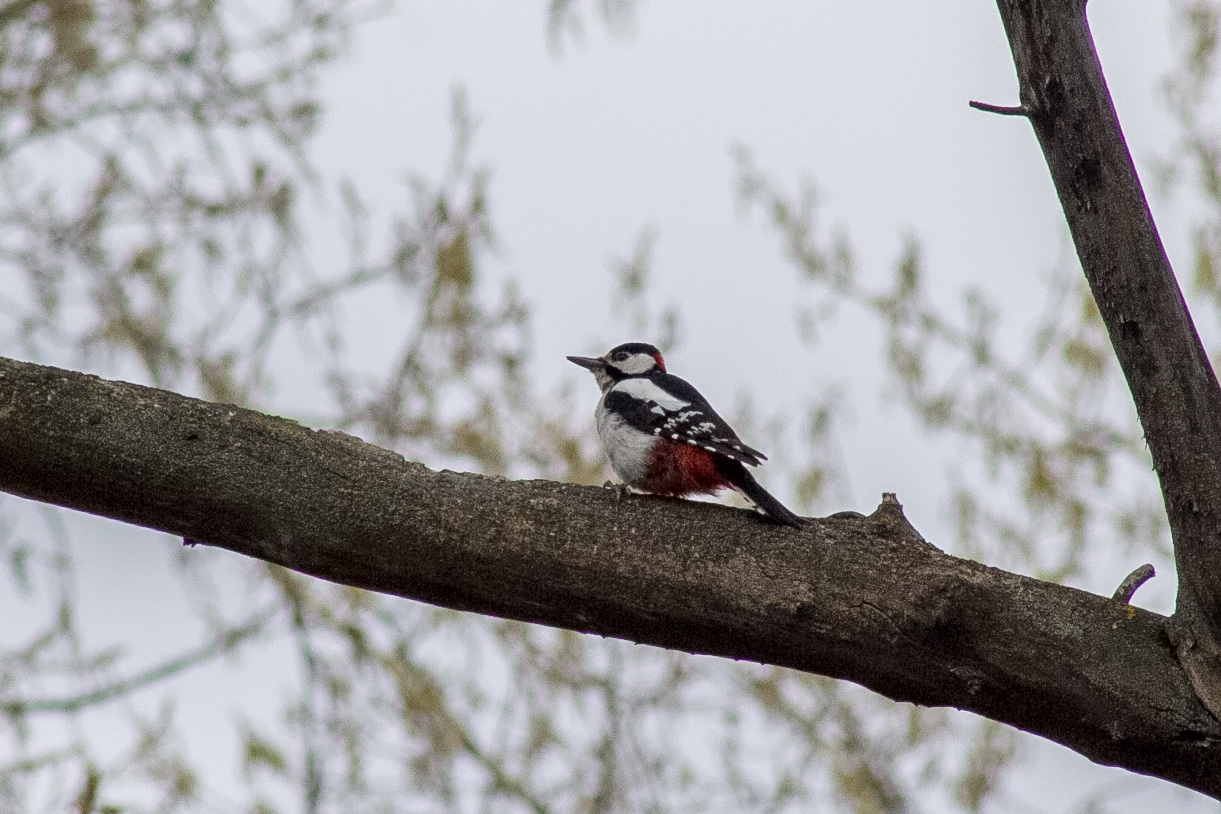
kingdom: Animalia
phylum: Chordata
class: Aves
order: Piciformes
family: Picidae
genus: Dendrocopos
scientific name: Dendrocopos major
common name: Great spotted woodpecker
